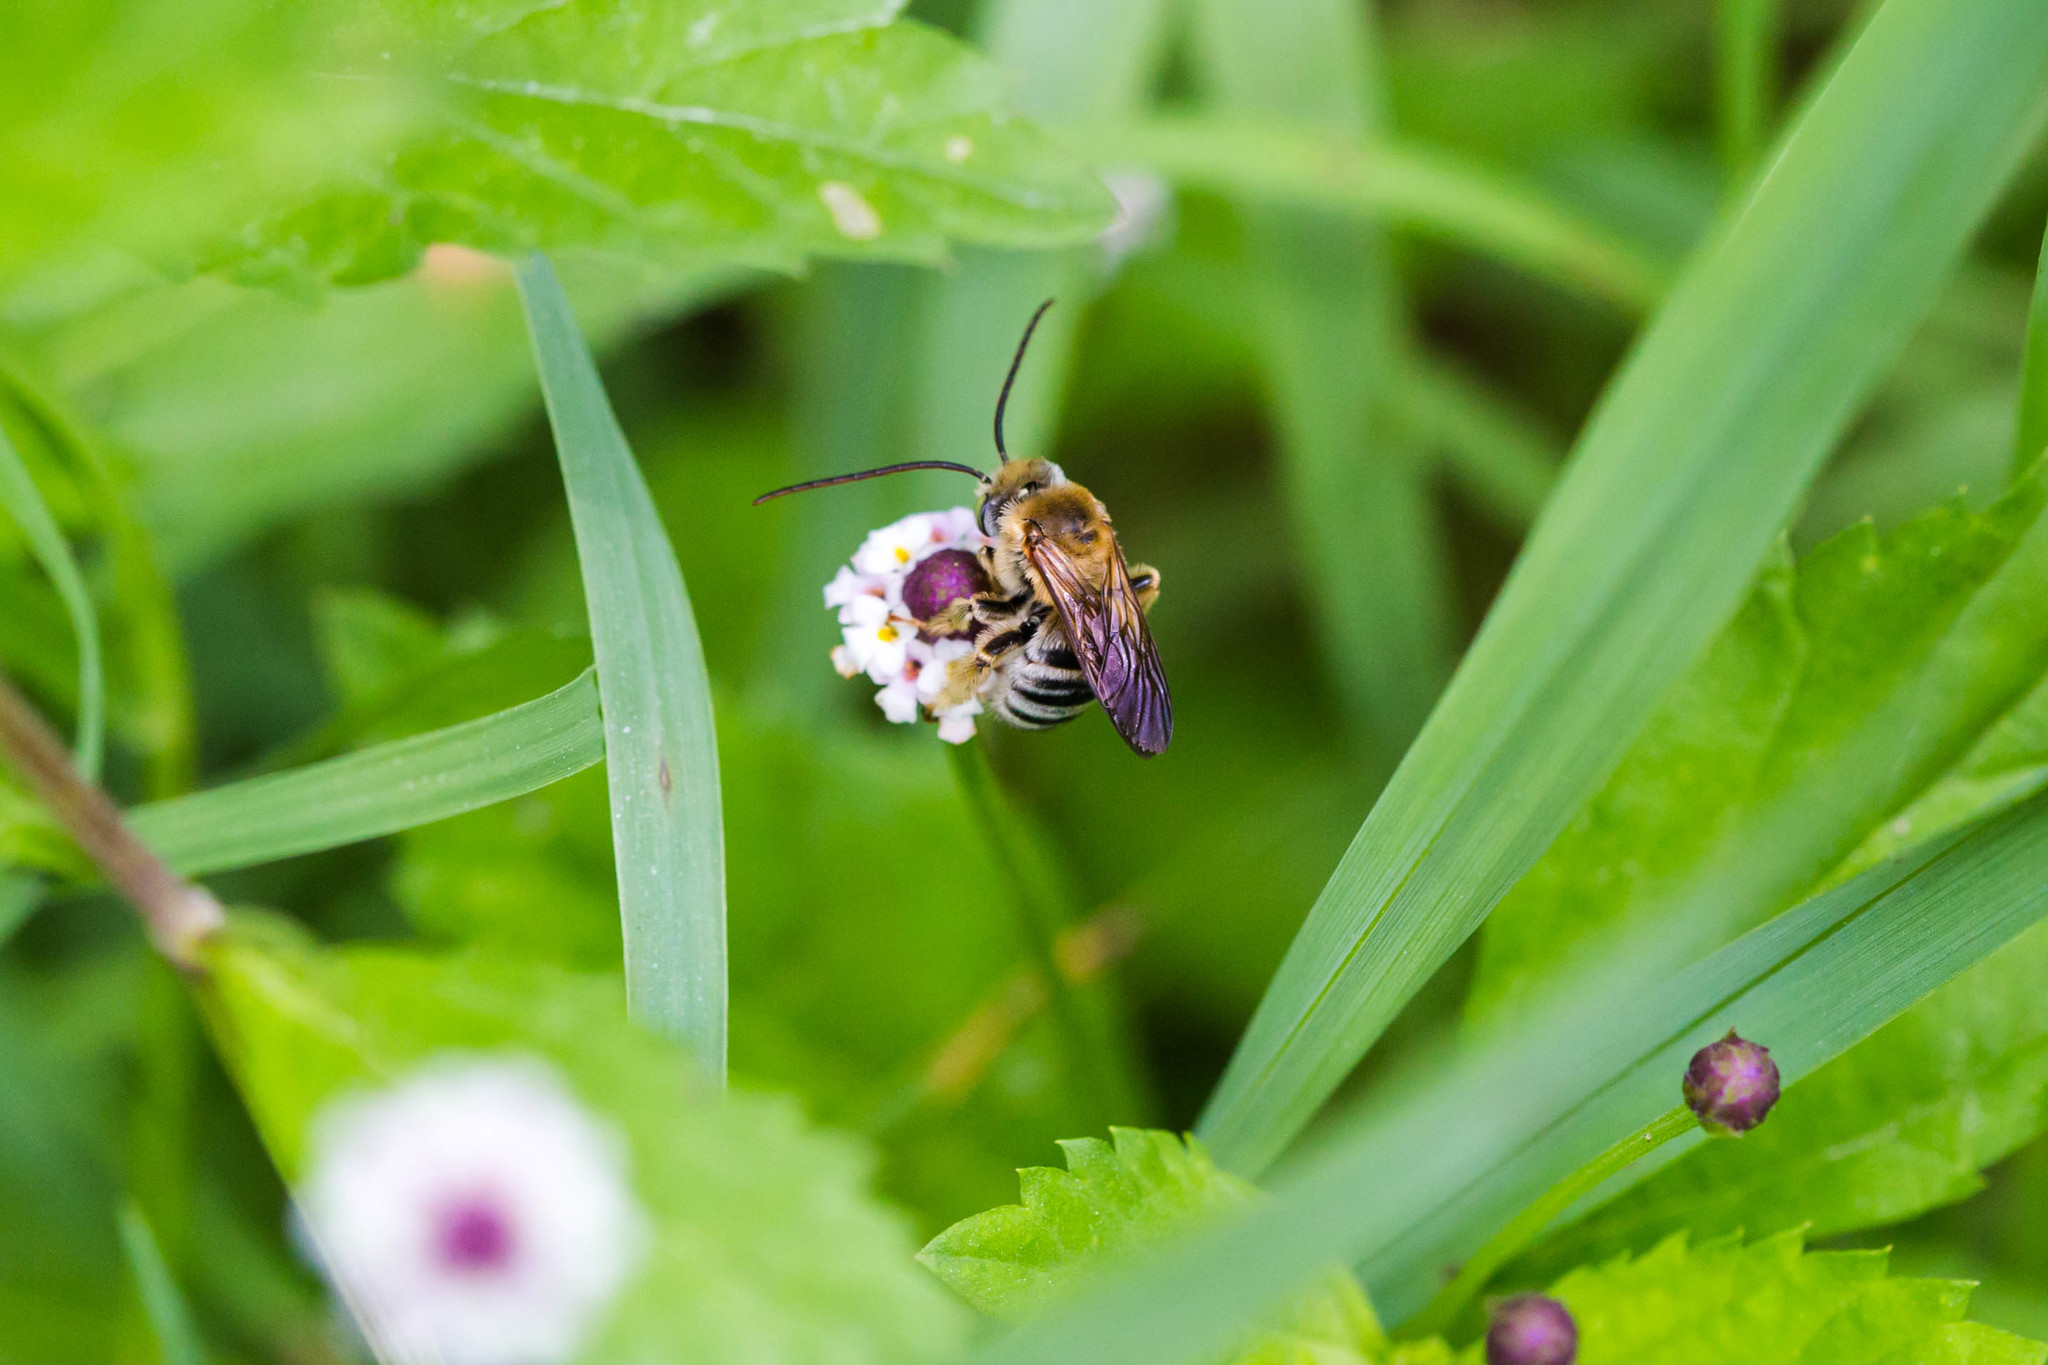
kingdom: Animalia
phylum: Arthropoda
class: Insecta
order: Hymenoptera
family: Apidae
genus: Melissodes
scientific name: Melissodes comptoides
